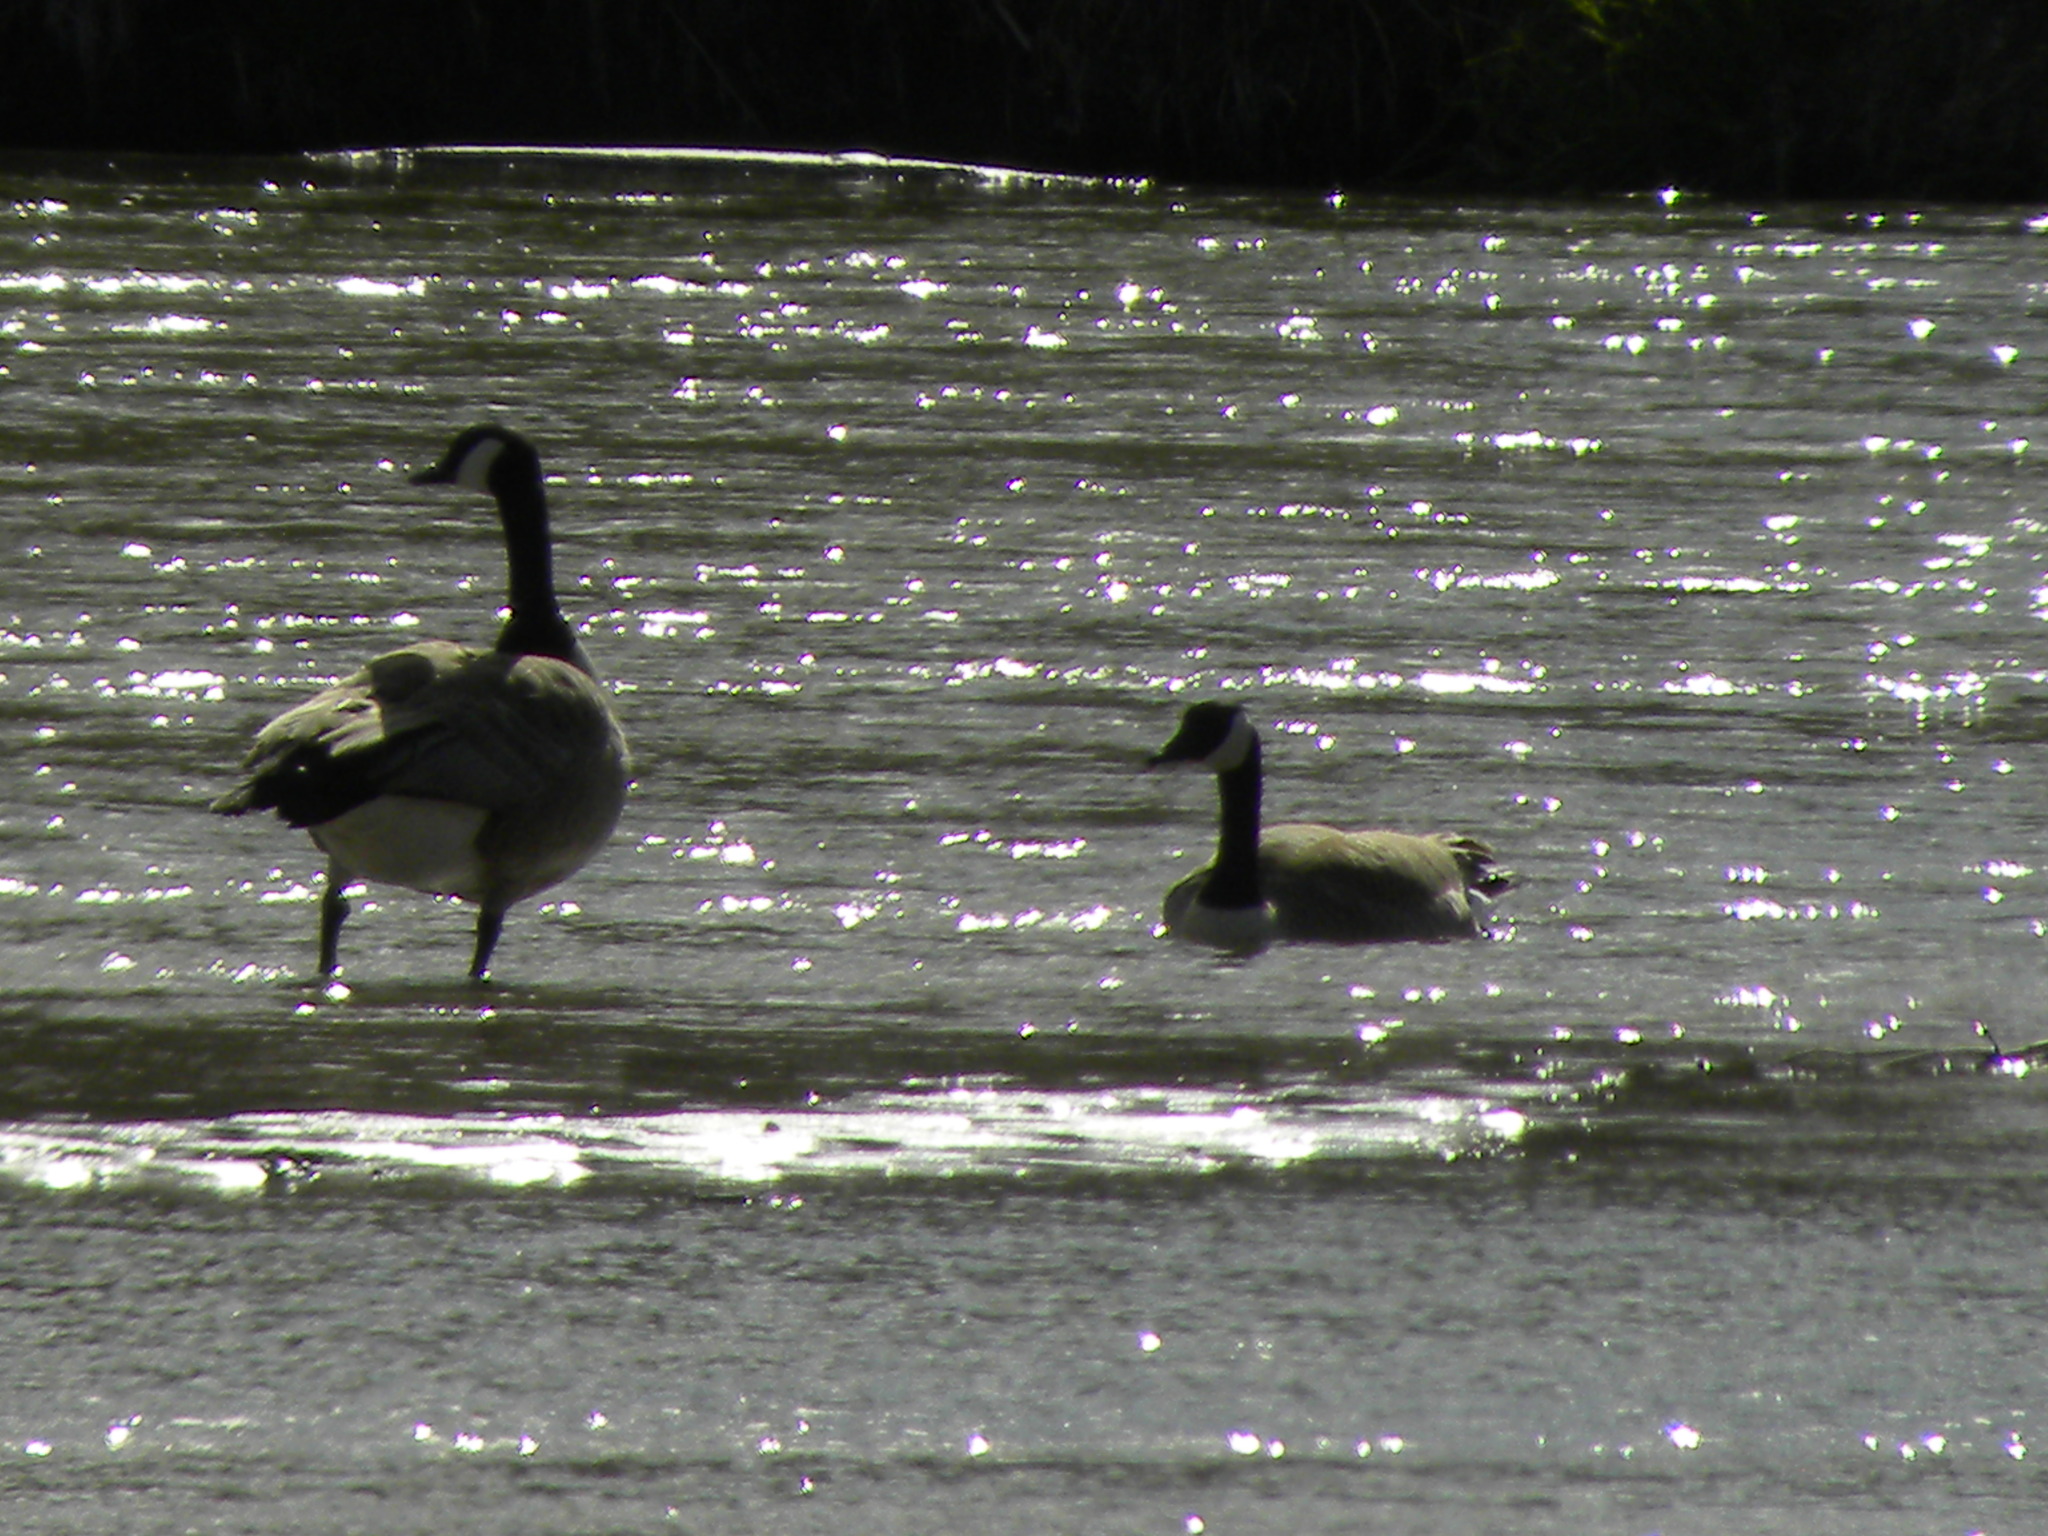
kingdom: Animalia
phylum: Chordata
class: Aves
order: Anseriformes
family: Anatidae
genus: Branta
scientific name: Branta canadensis
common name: Canada goose
